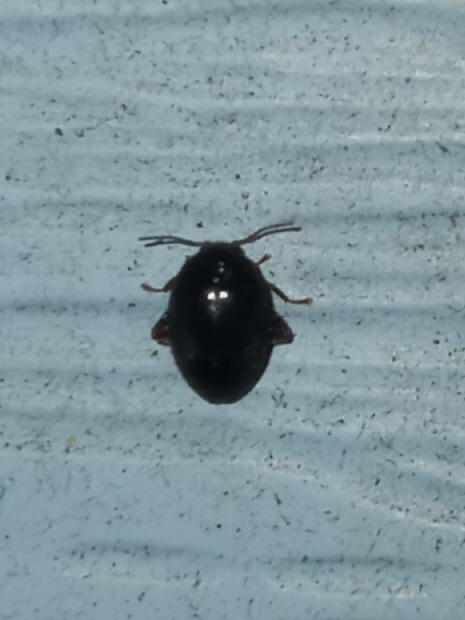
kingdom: Animalia
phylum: Arthropoda
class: Insecta
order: Coleoptera
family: Scirtidae
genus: Scirtes
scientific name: Scirtes tibialis
